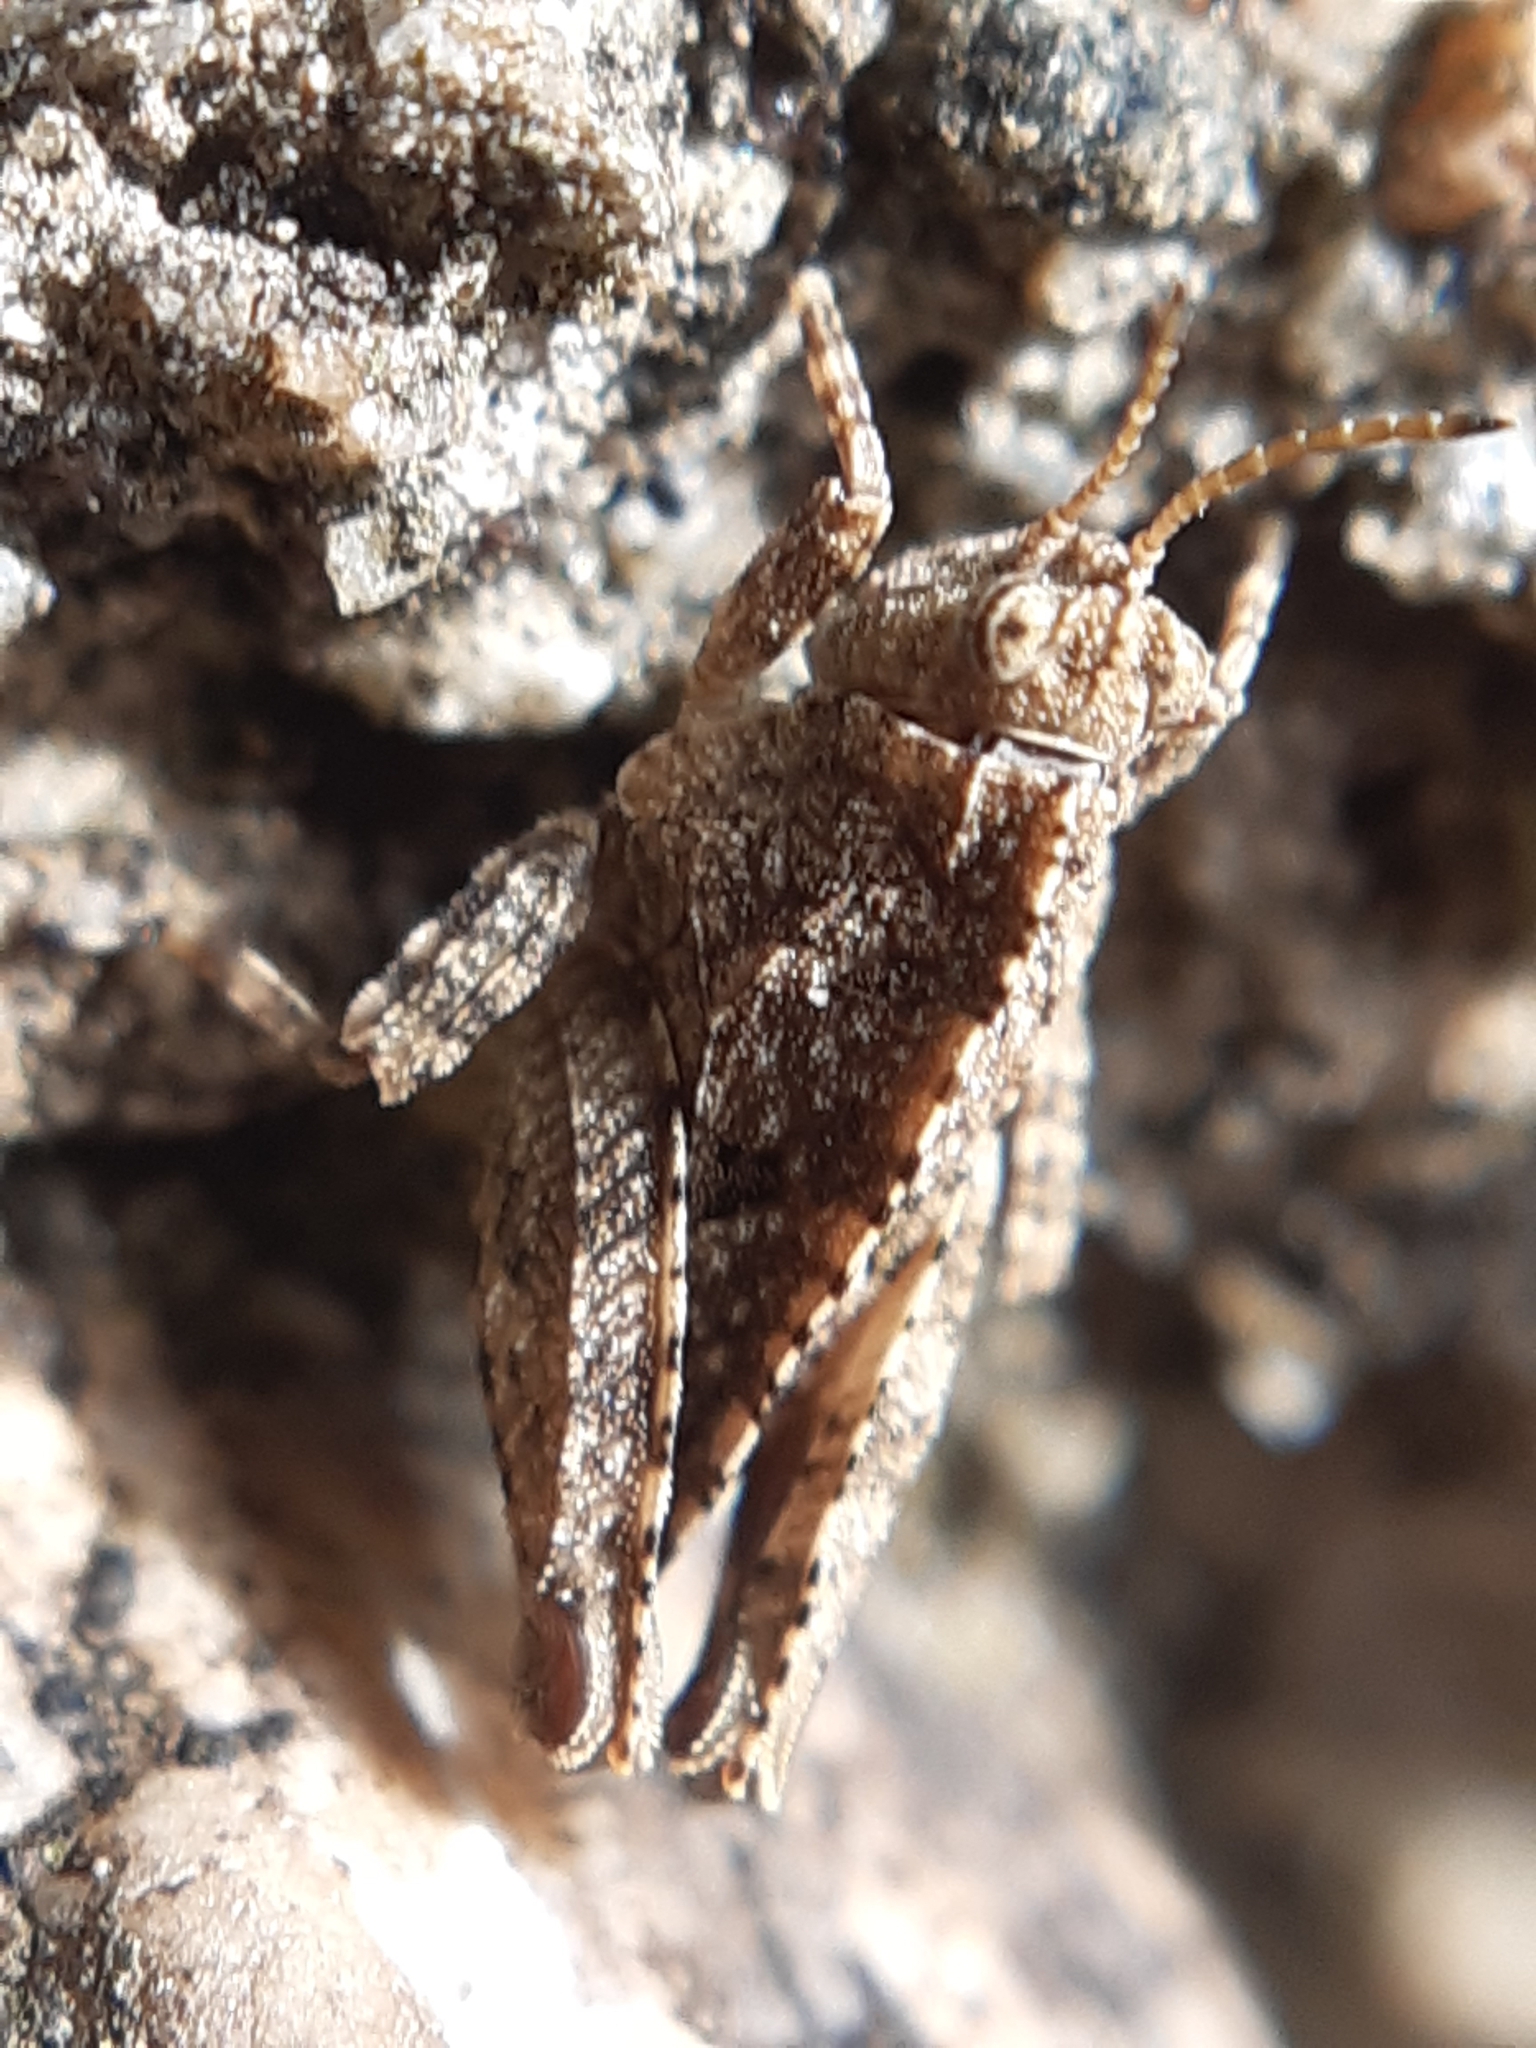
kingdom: Animalia
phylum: Arthropoda
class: Insecta
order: Orthoptera
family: Tetrigidae
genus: Tetrix
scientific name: Tetrix tenuicornis
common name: Long-horned groundhopper
